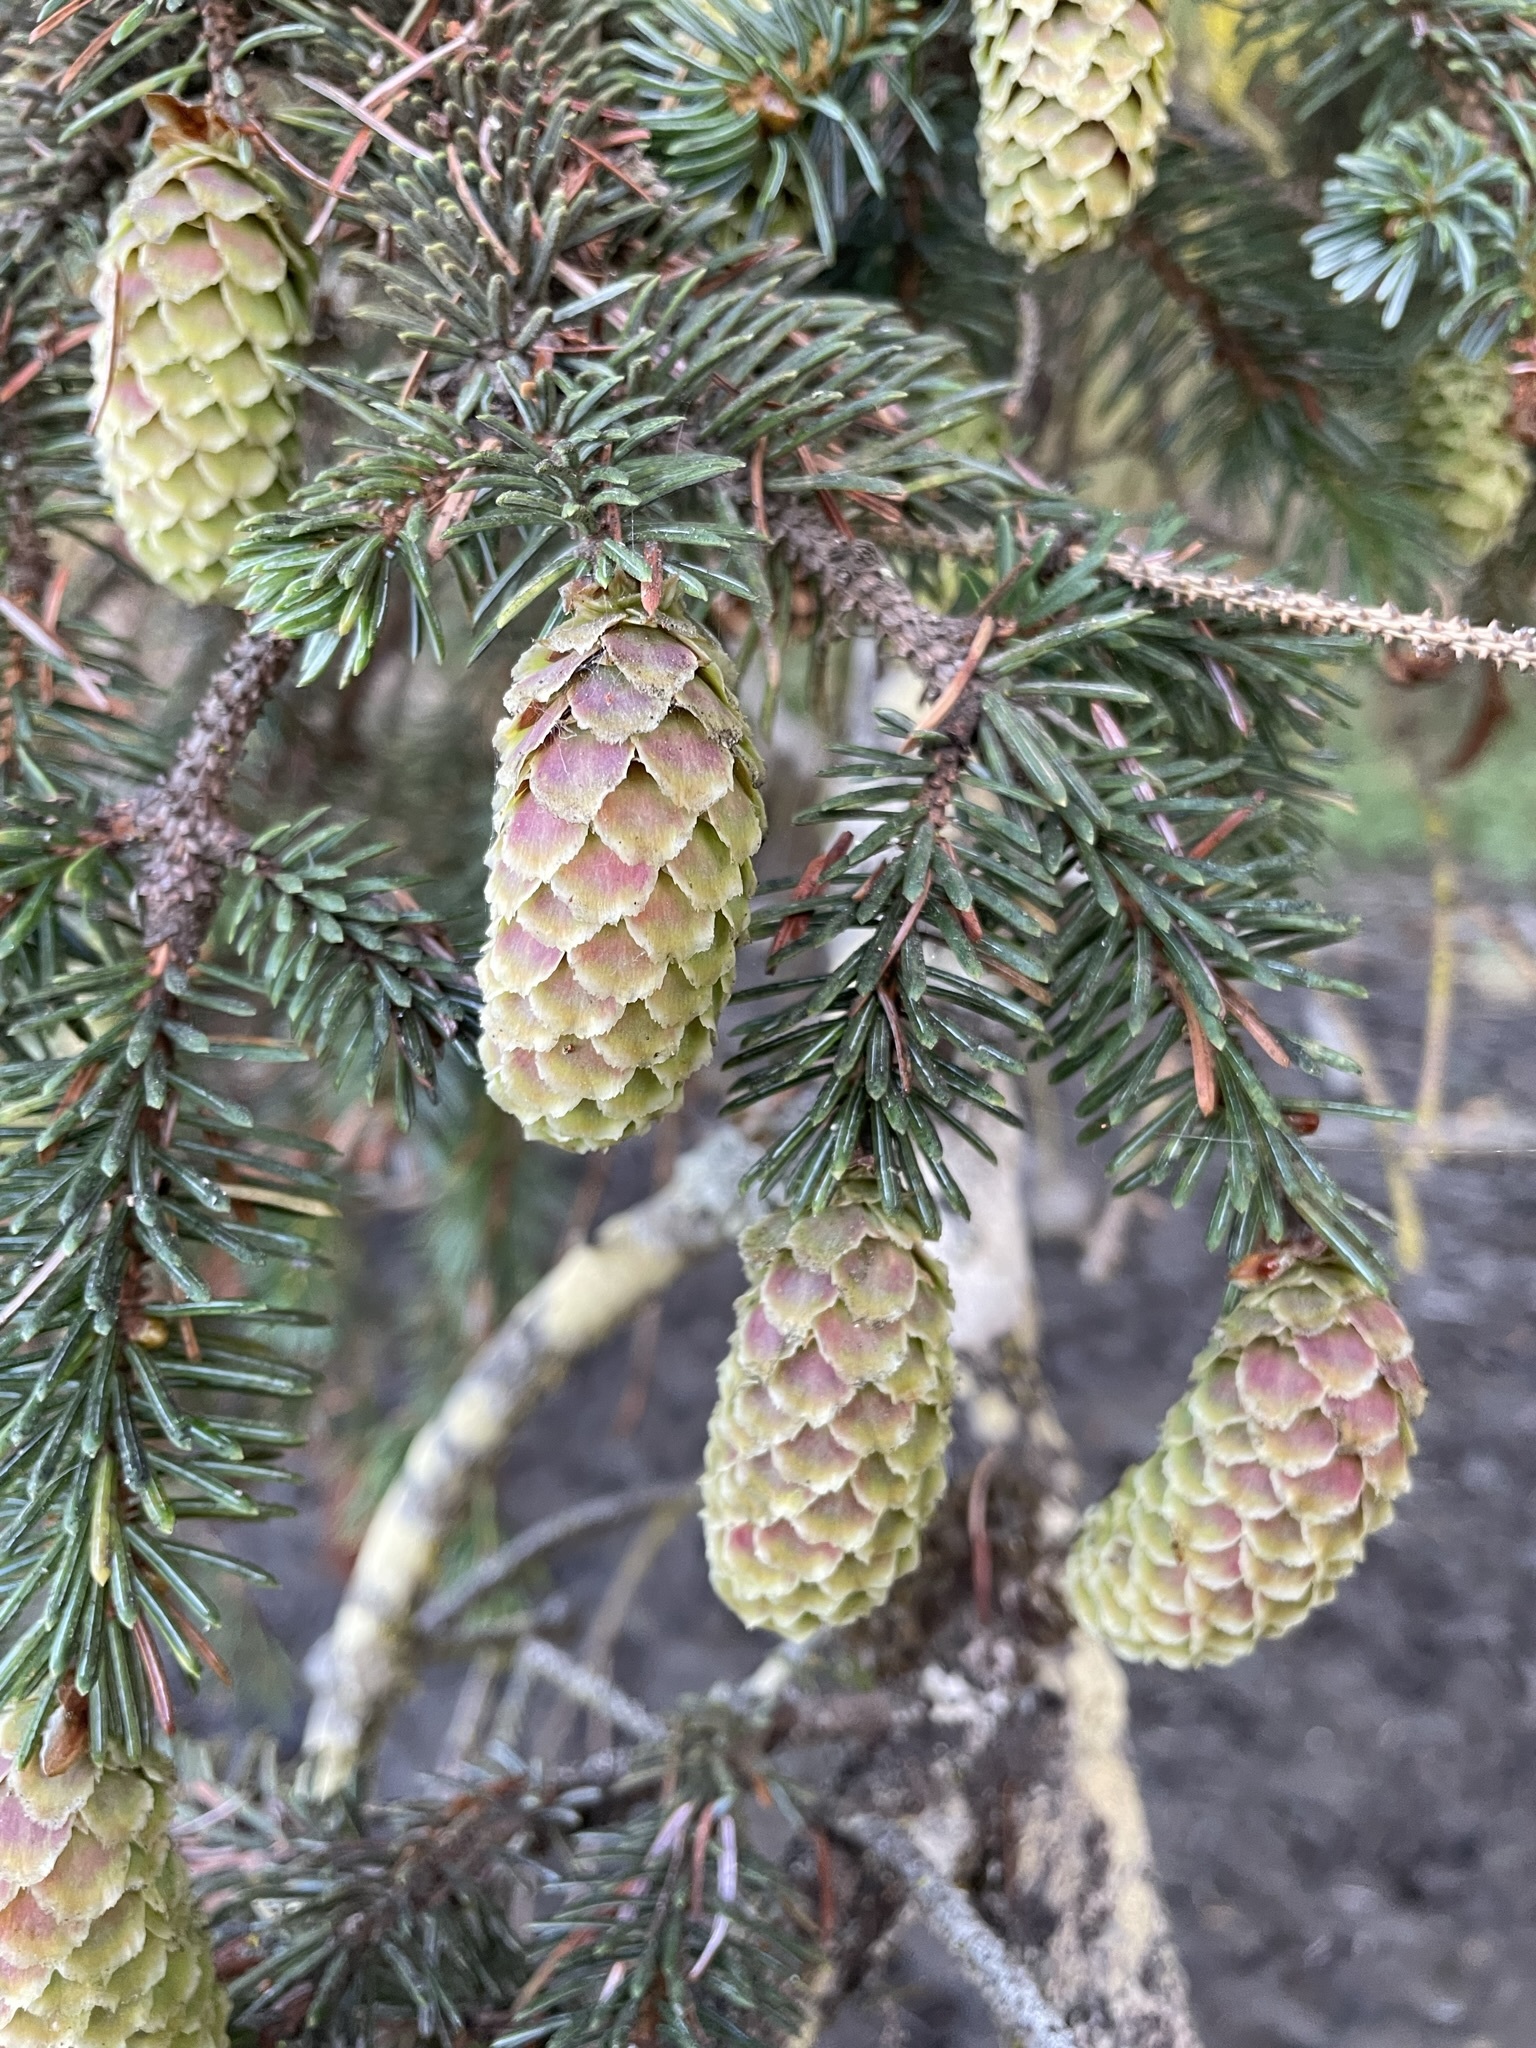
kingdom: Plantae
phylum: Tracheophyta
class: Pinopsida
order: Pinales
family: Pinaceae
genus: Picea
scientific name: Picea sitchensis
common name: Sitka spruce
